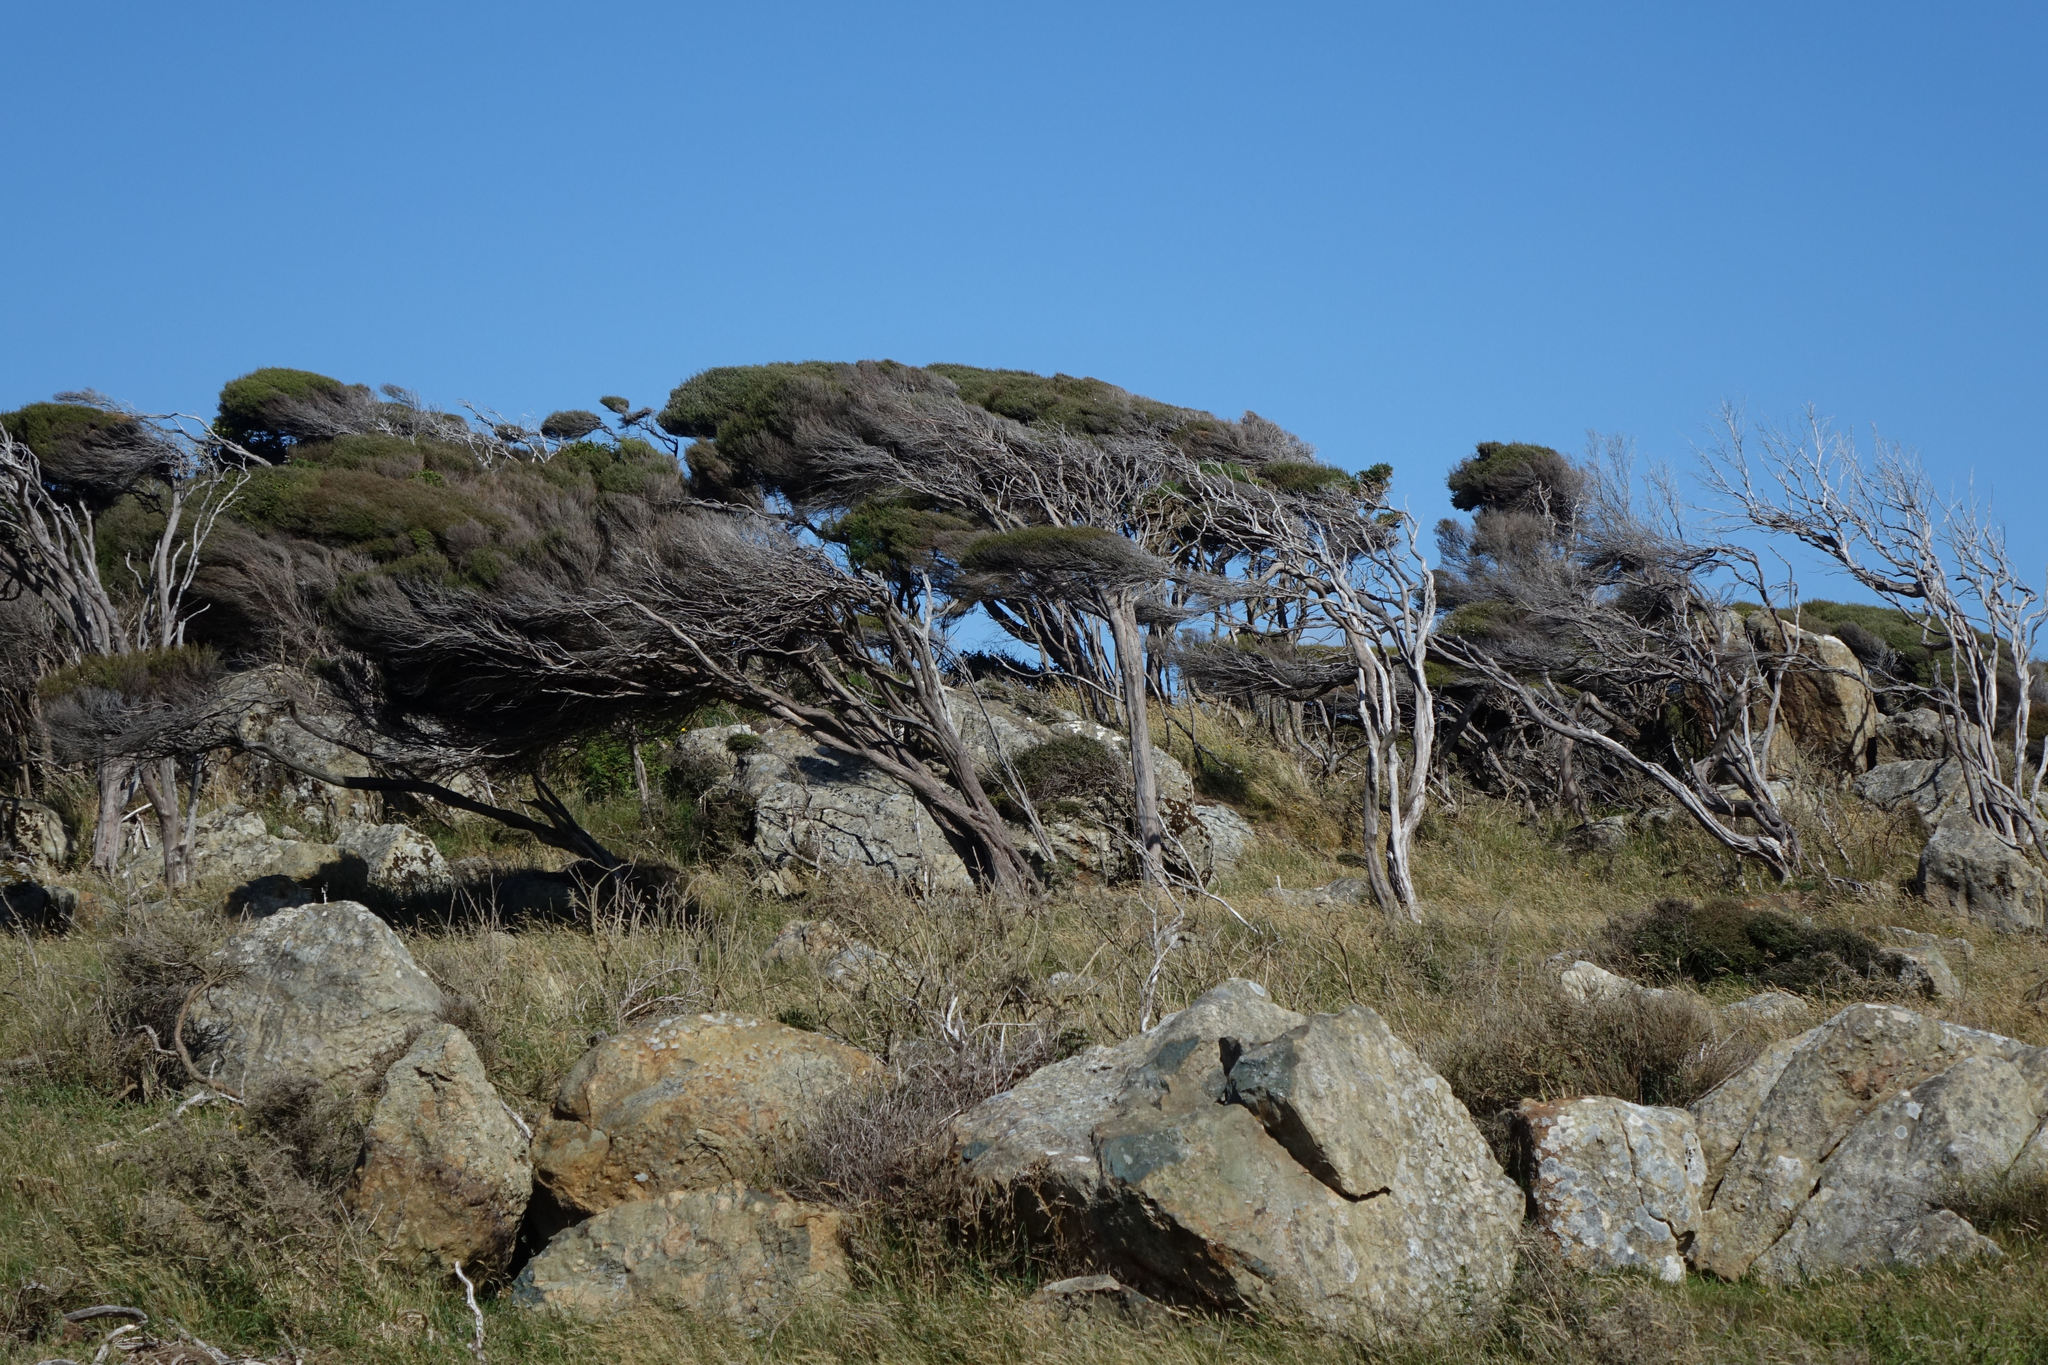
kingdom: Plantae
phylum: Tracheophyta
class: Magnoliopsida
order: Myrtales
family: Myrtaceae
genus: Leptospermum
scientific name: Leptospermum scoparium
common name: Broom tea-tree
